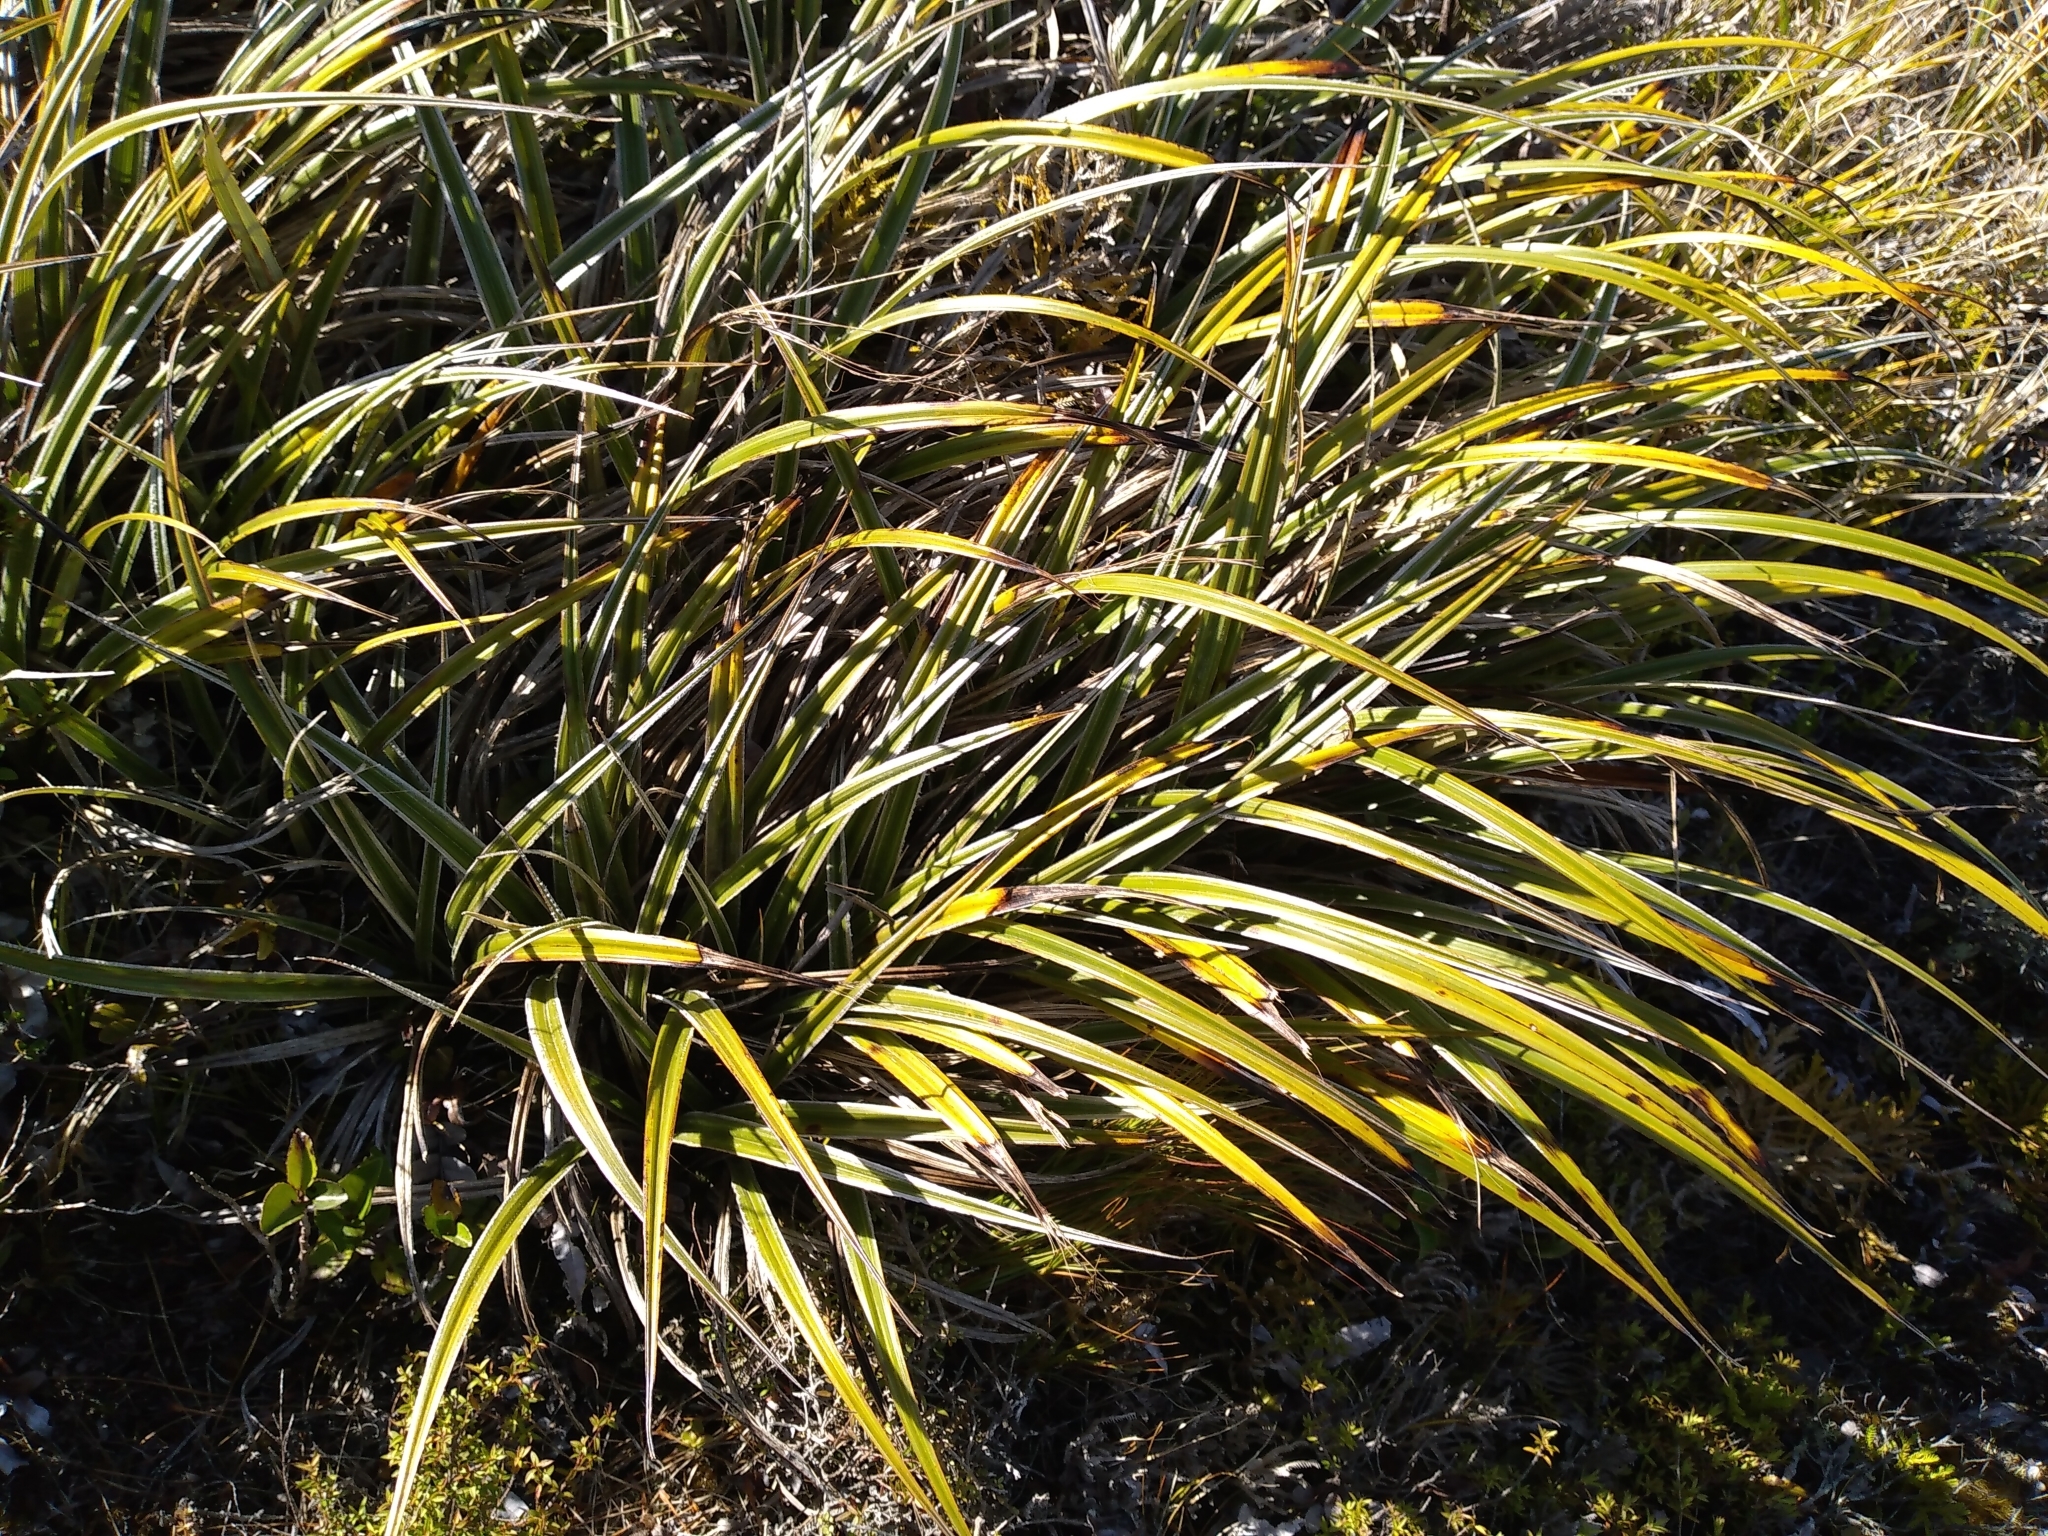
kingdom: Plantae
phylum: Tracheophyta
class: Liliopsida
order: Asparagales
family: Asteliaceae
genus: Astelia
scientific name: Astelia nervosa
